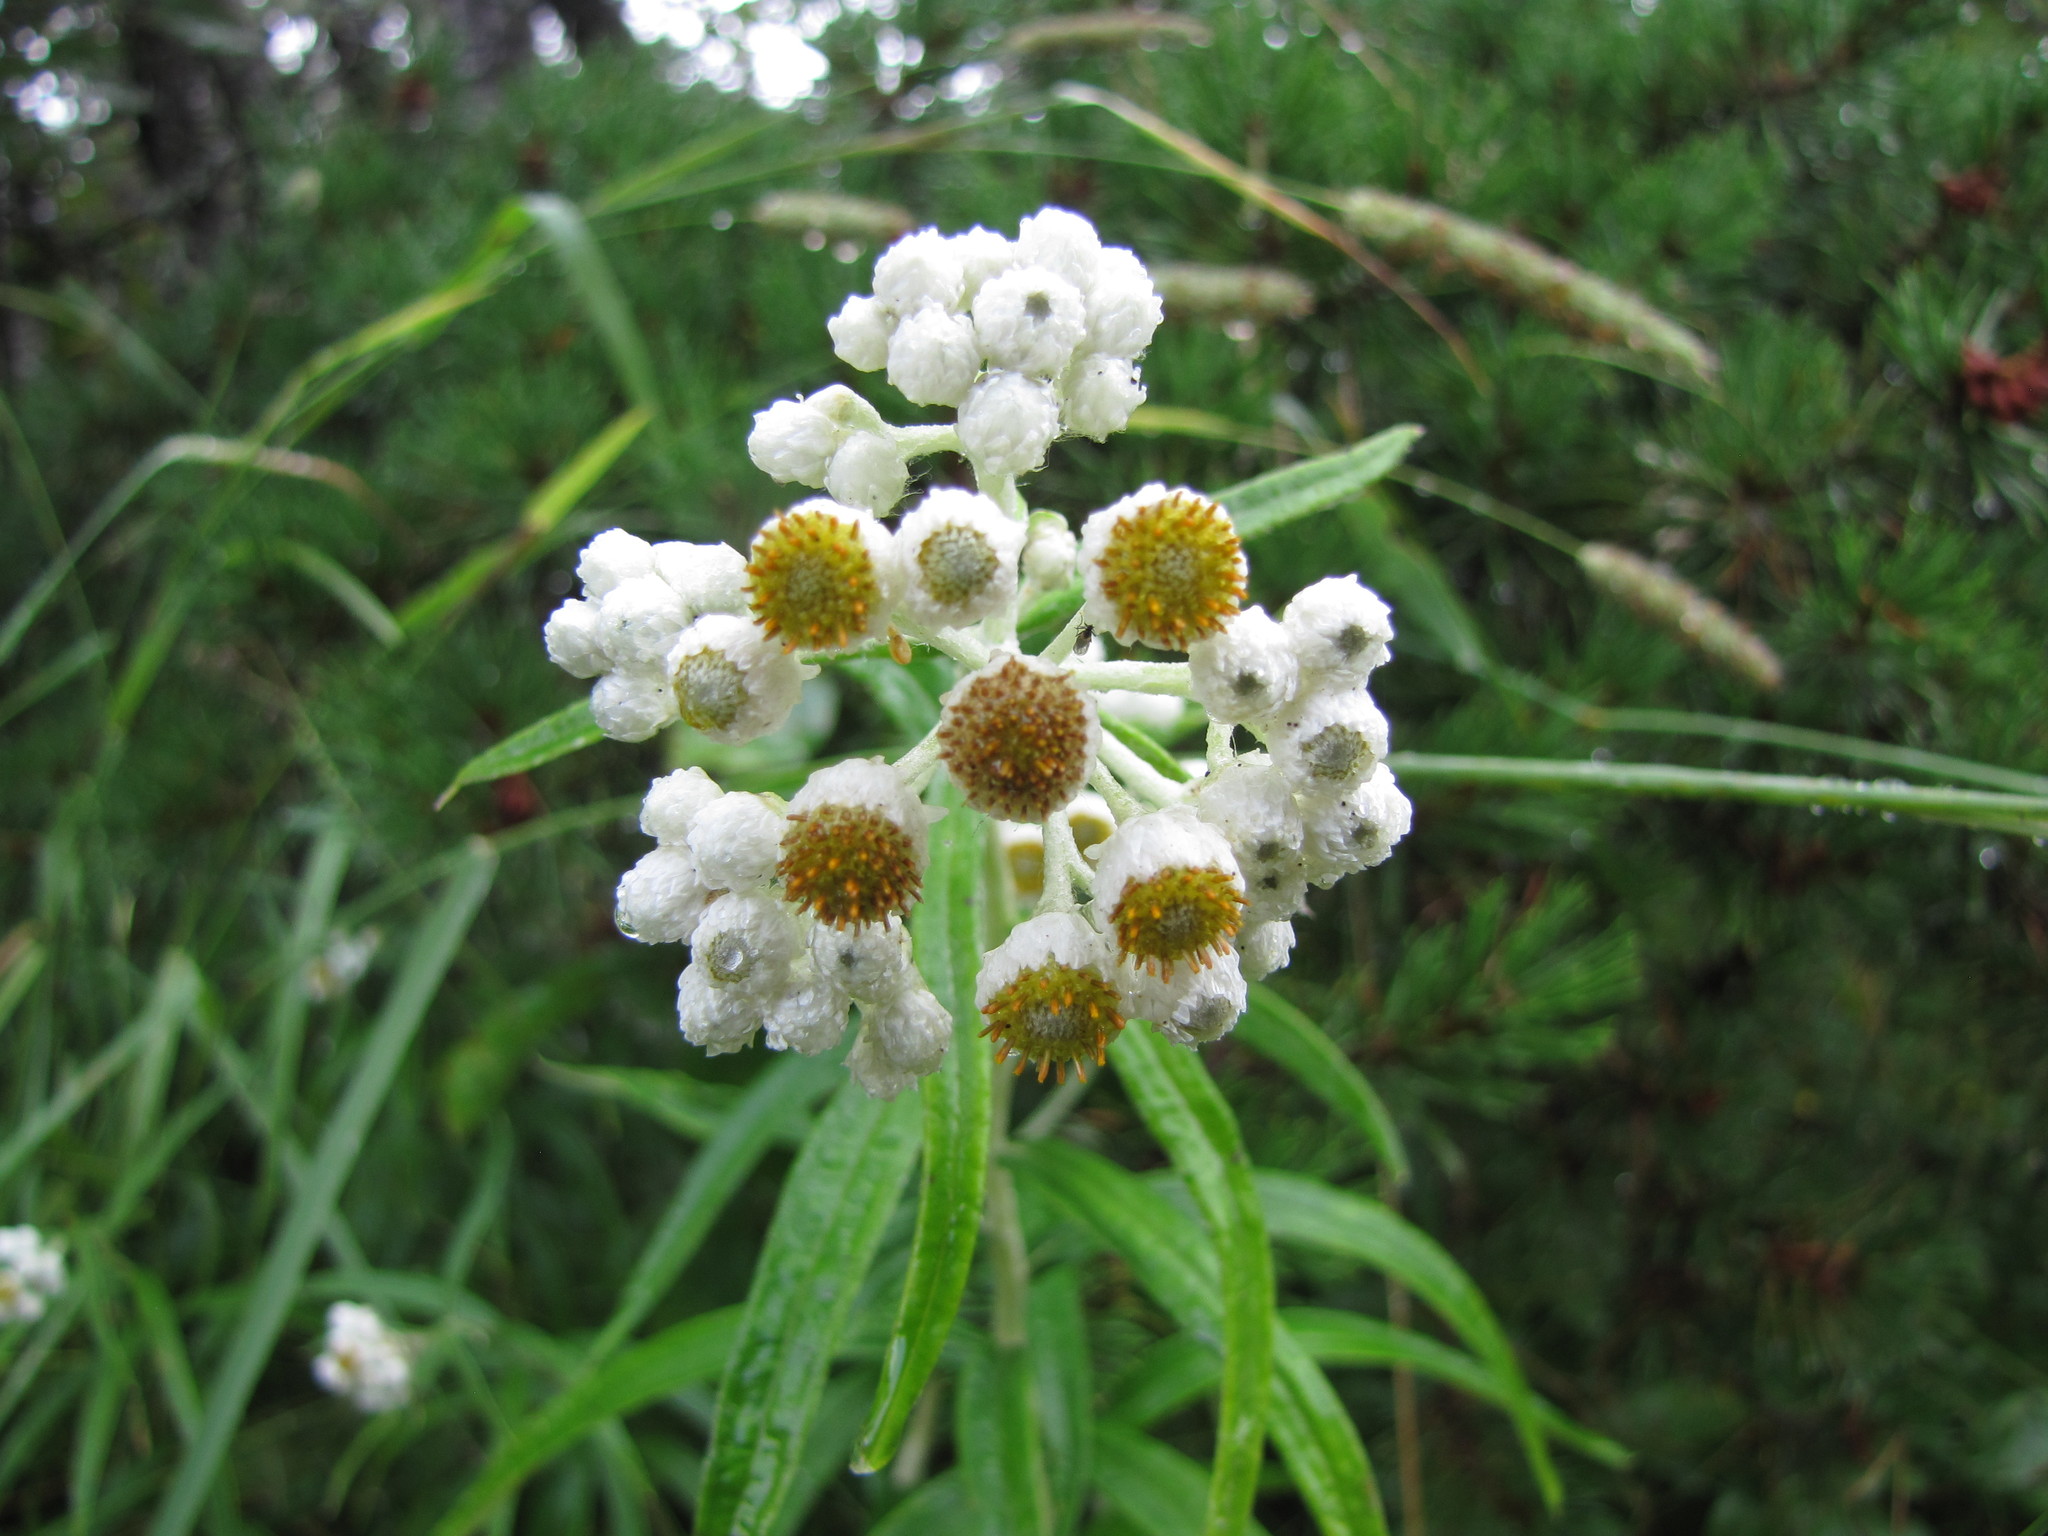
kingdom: Plantae
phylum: Tracheophyta
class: Magnoliopsida
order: Asterales
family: Asteraceae
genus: Anaphalis
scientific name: Anaphalis margaritacea
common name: Pearly everlasting
